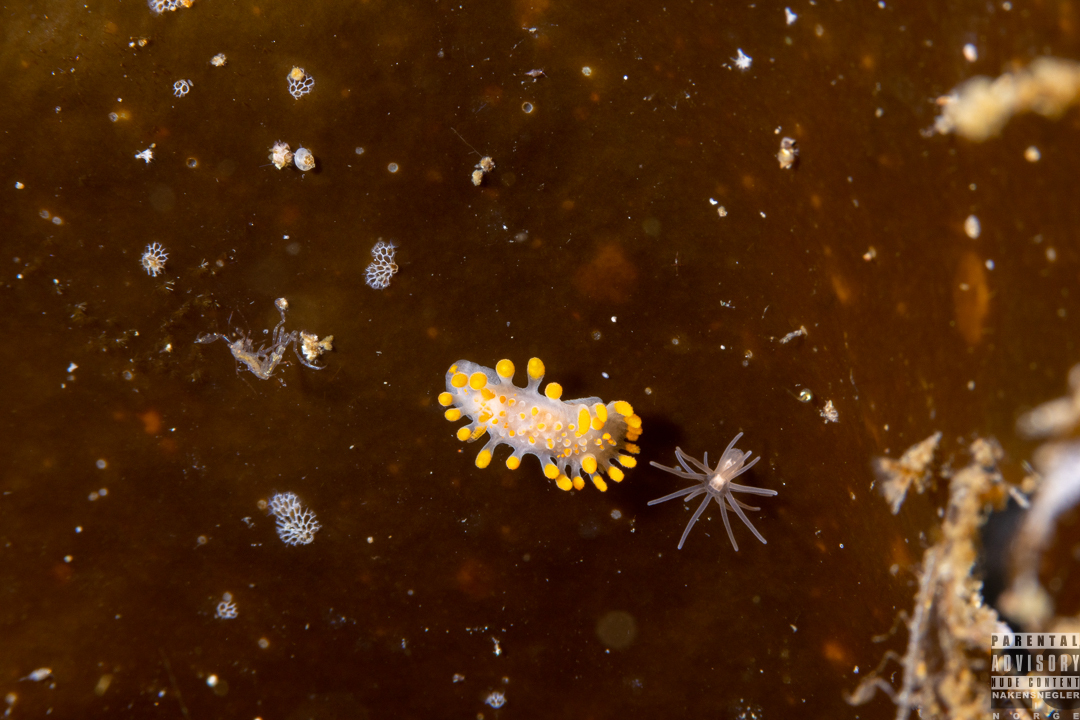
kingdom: Animalia
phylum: Mollusca
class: Gastropoda
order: Nudibranchia
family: Polyceridae
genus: Limacia
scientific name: Limacia clavigera
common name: Orange-clubbed sea slug
